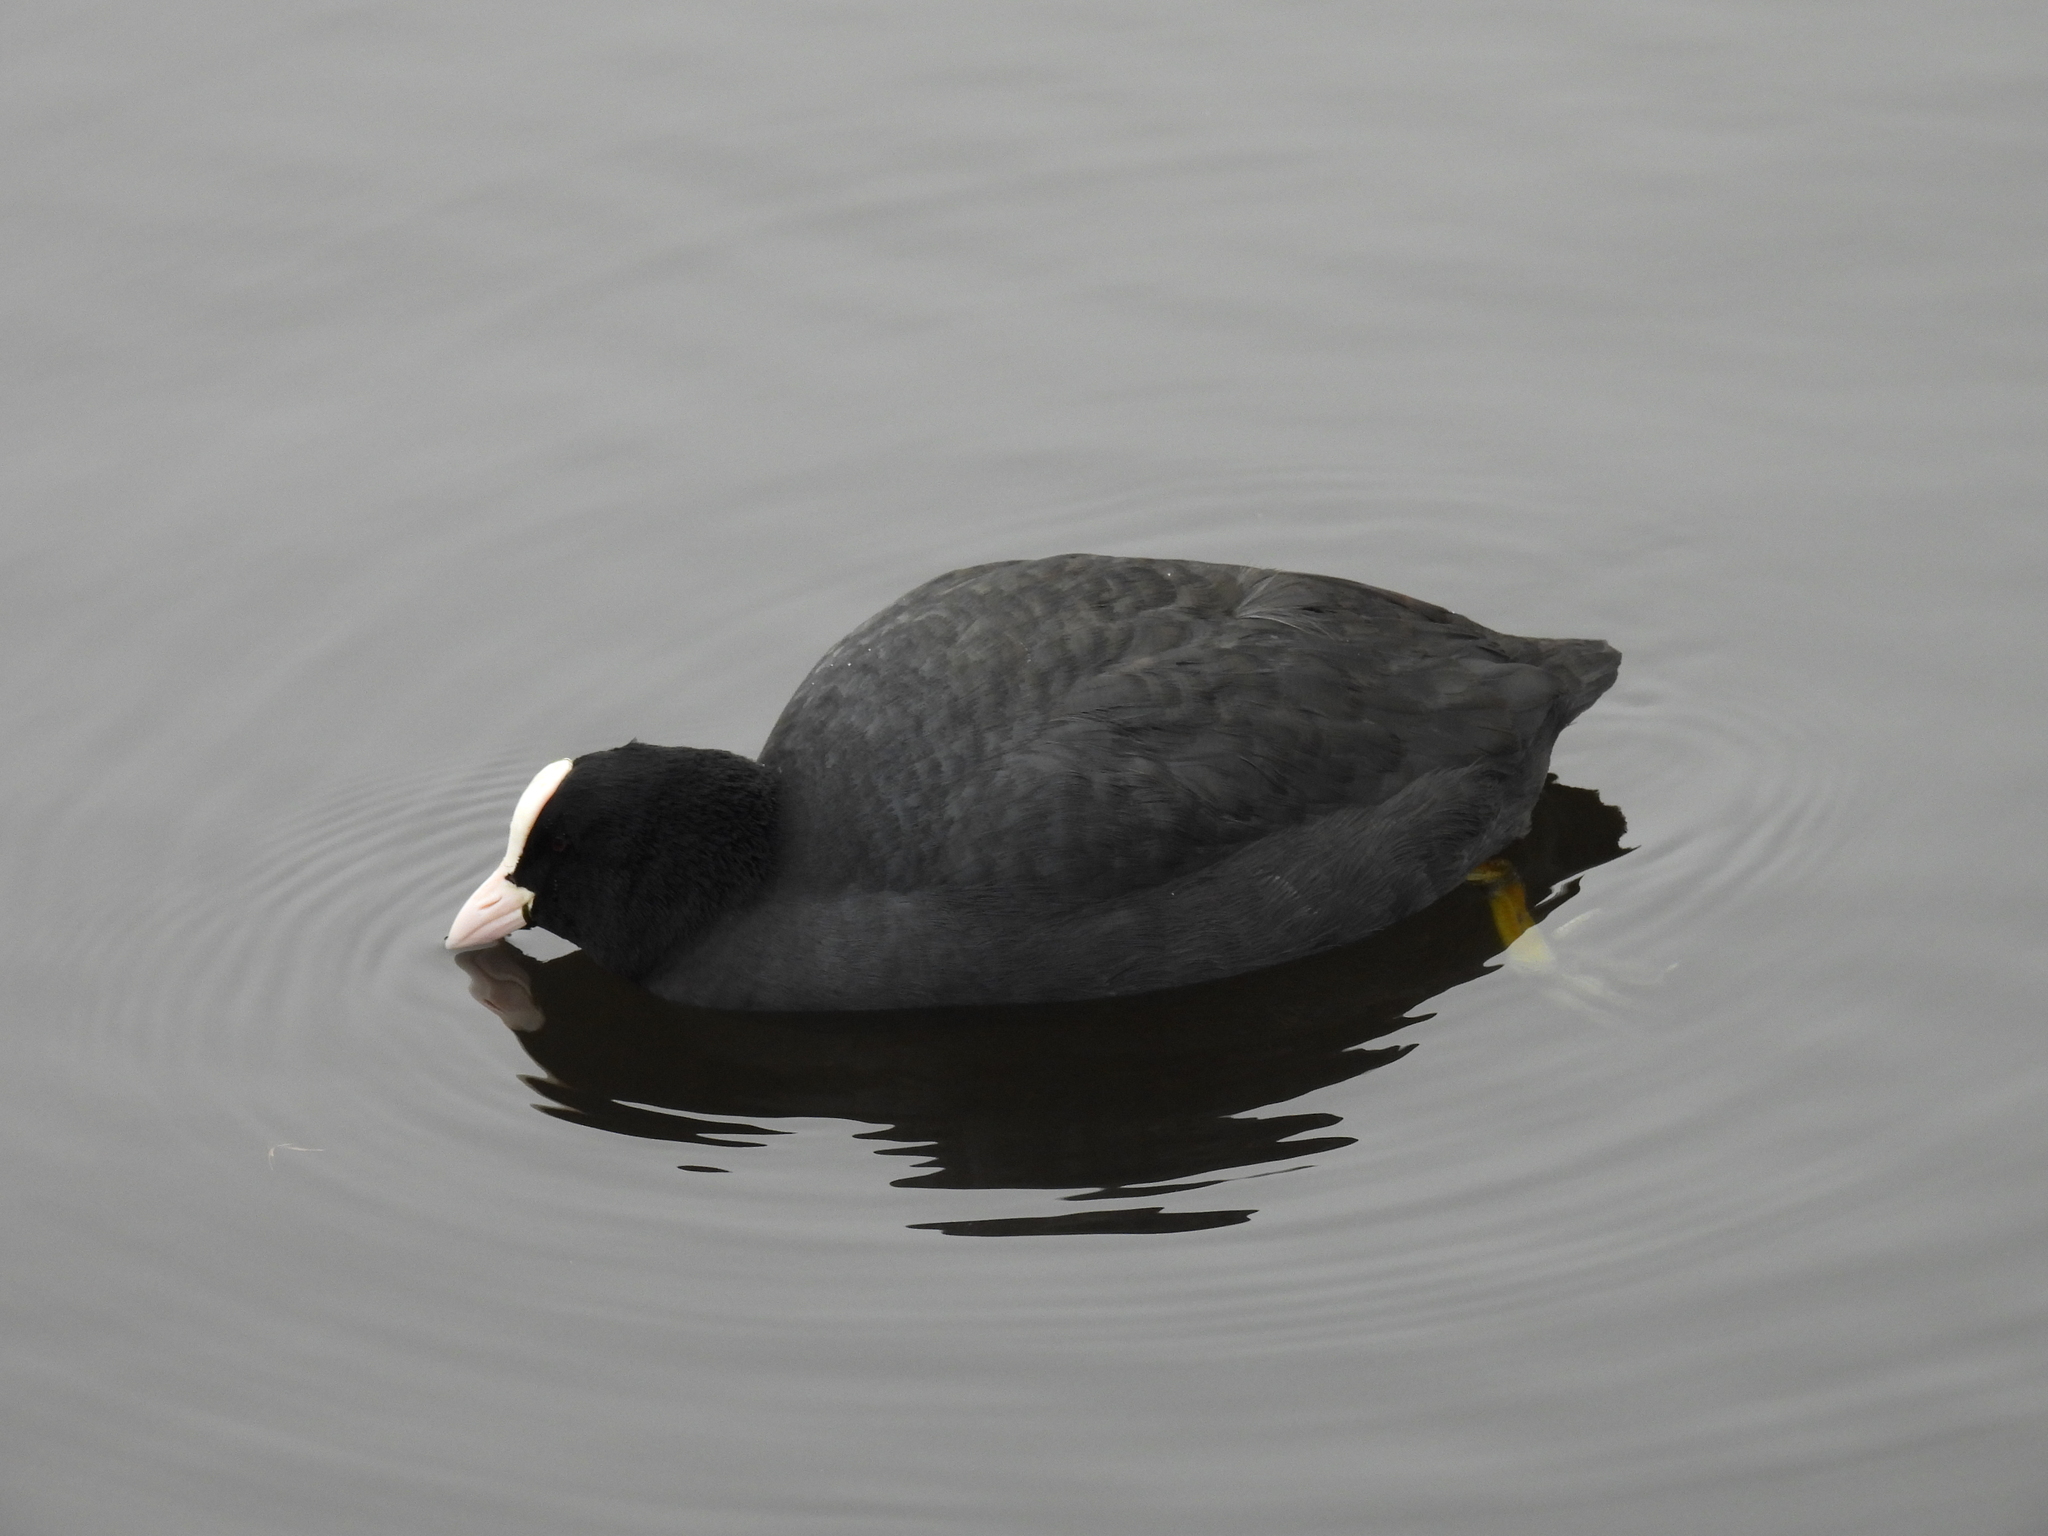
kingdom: Animalia
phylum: Chordata
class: Aves
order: Gruiformes
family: Rallidae
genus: Fulica
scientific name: Fulica atra
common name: Eurasian coot
